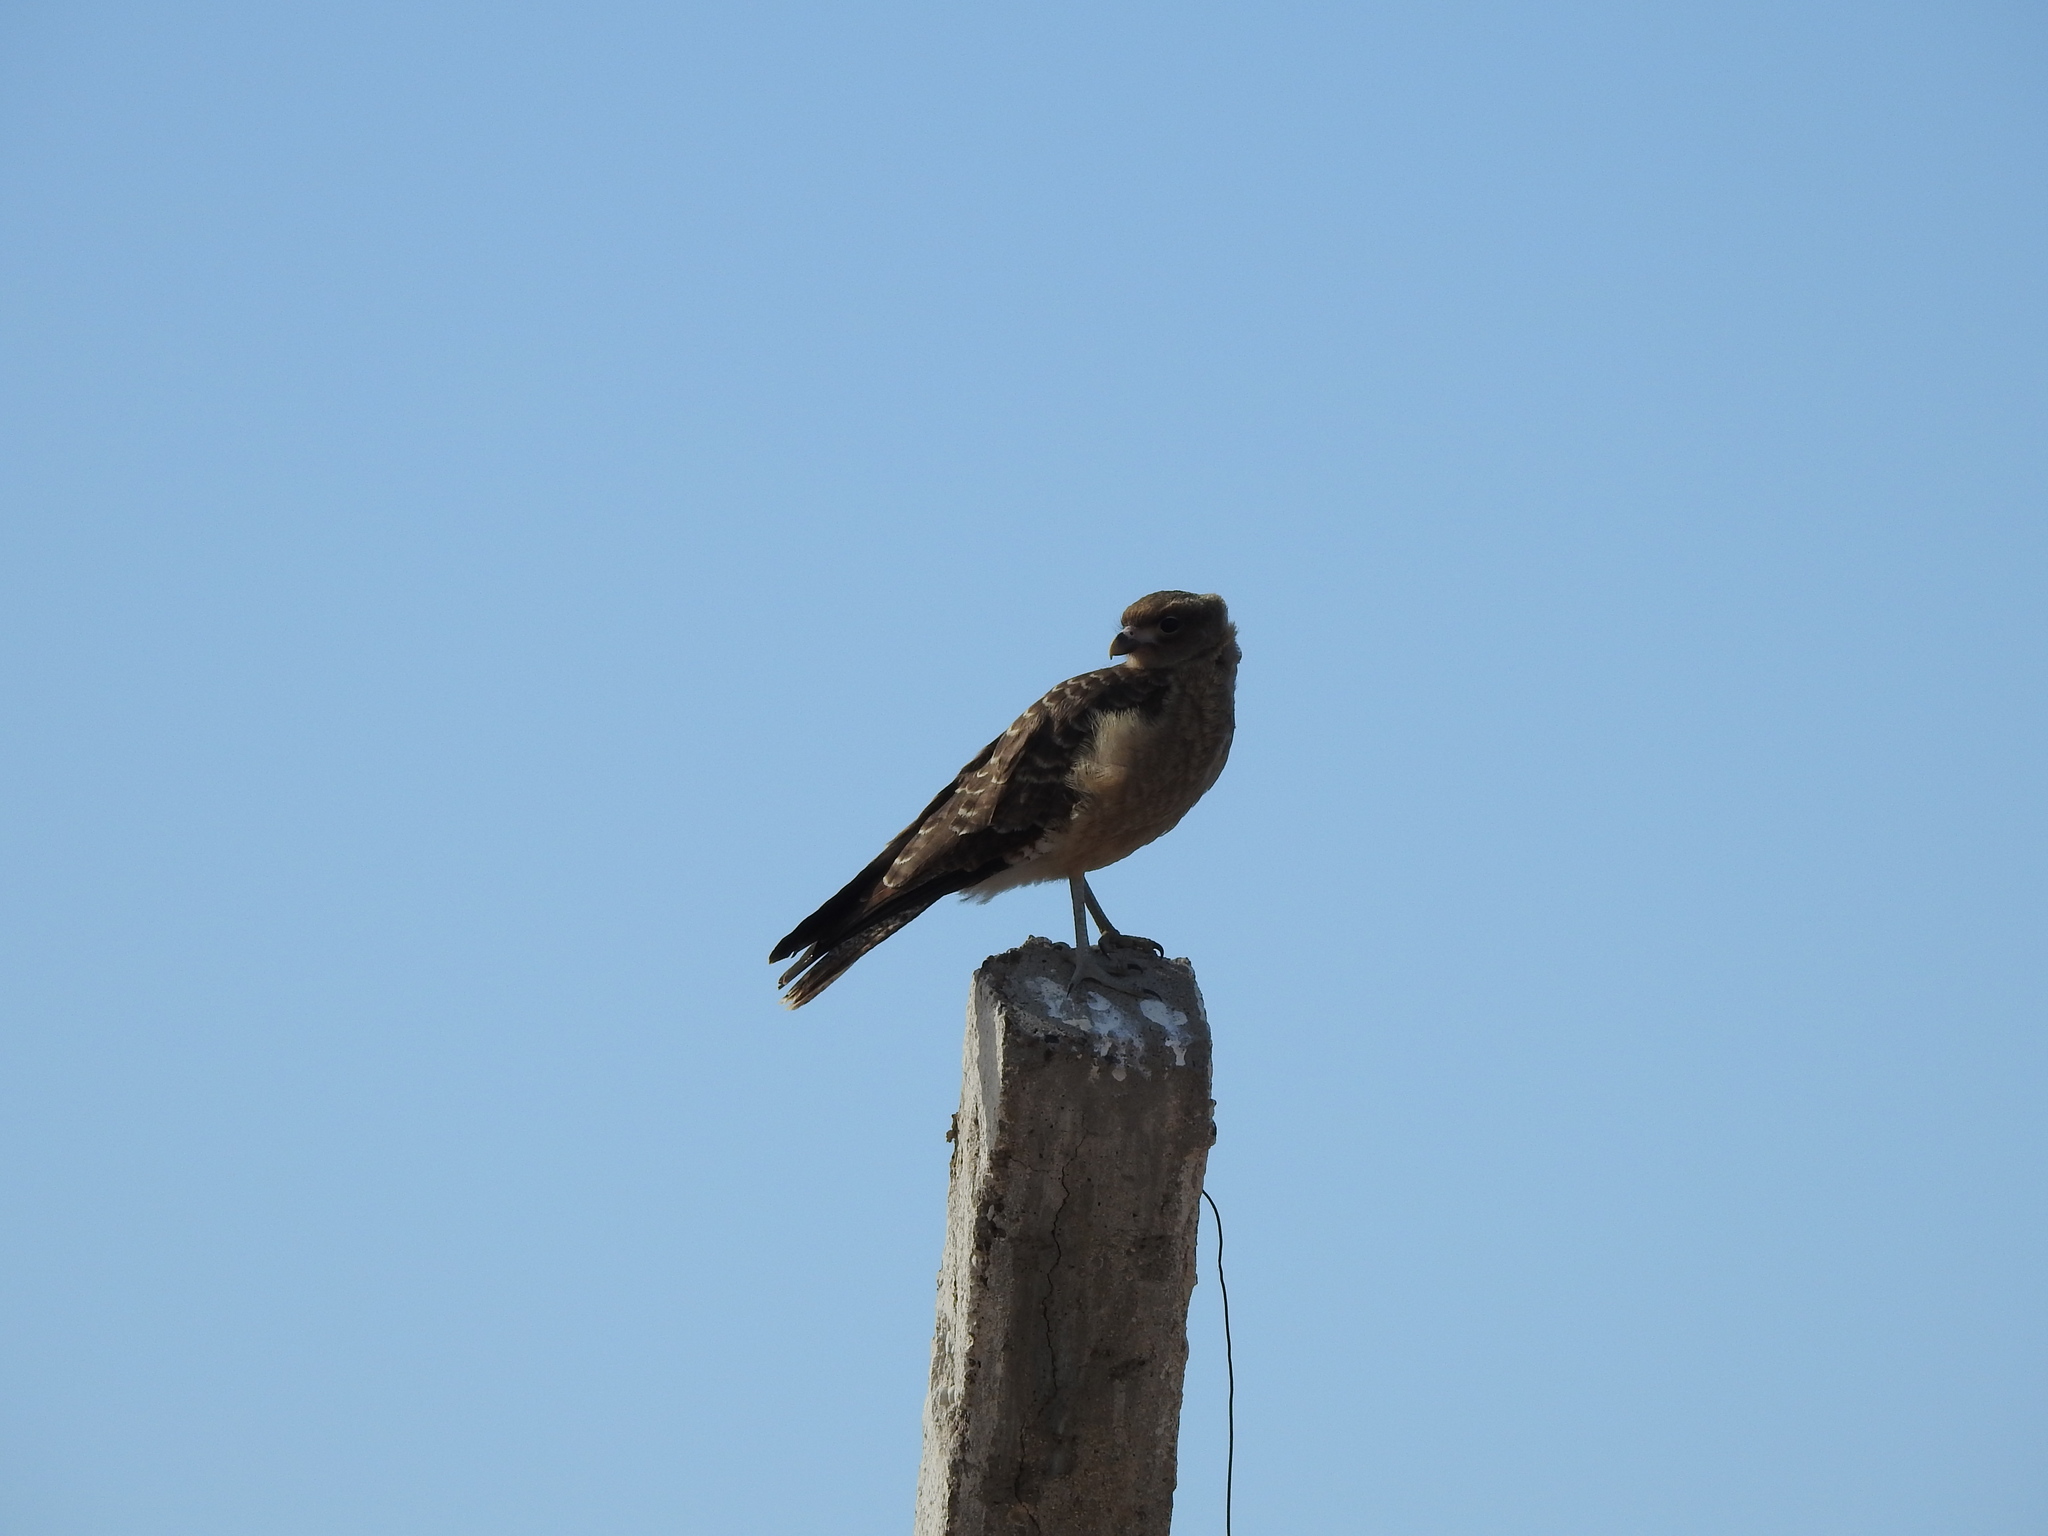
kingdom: Animalia
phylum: Chordata
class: Aves
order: Falconiformes
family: Falconidae
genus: Daptrius
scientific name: Daptrius
